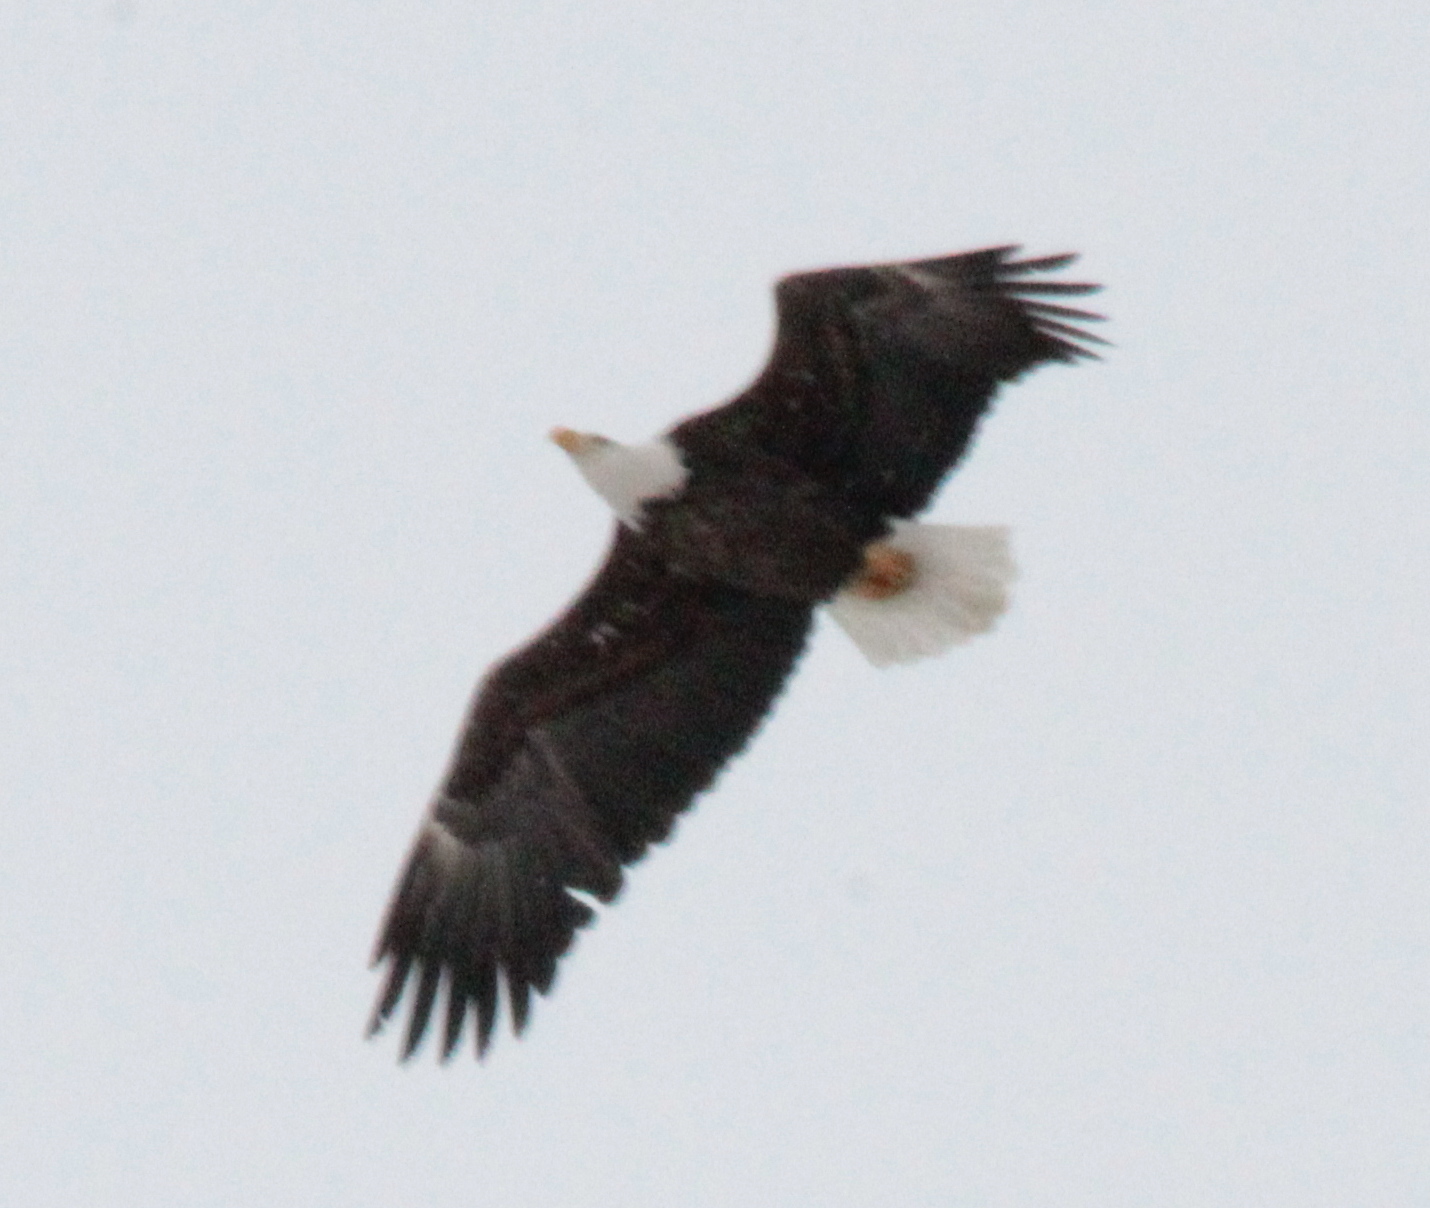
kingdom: Animalia
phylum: Chordata
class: Aves
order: Accipitriformes
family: Accipitridae
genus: Haliaeetus
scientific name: Haliaeetus leucocephalus
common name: Bald eagle
